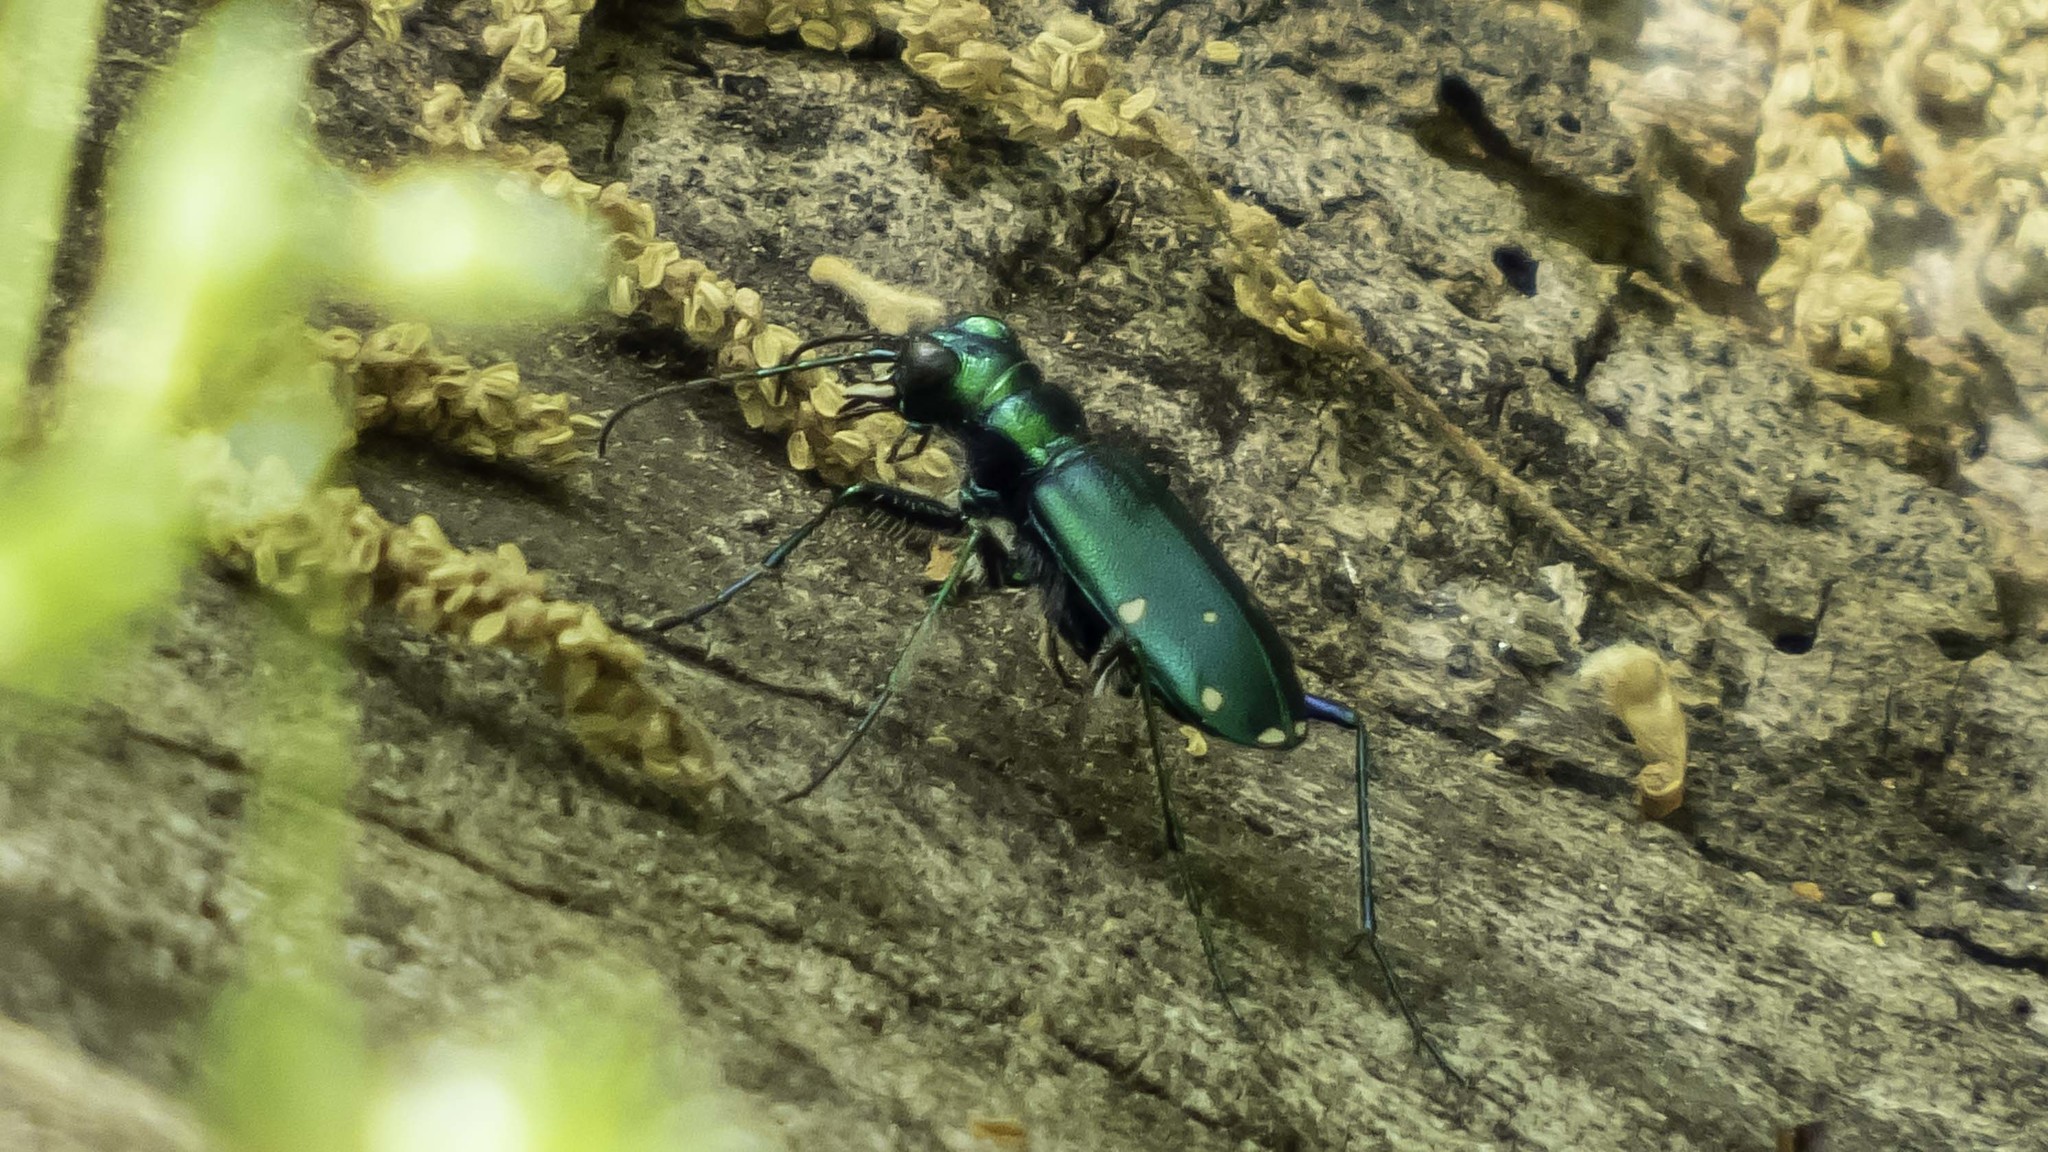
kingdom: Animalia
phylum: Arthropoda
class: Insecta
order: Coleoptera
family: Carabidae
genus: Cicindela
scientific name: Cicindela sexguttata
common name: Six-spotted tiger beetle
